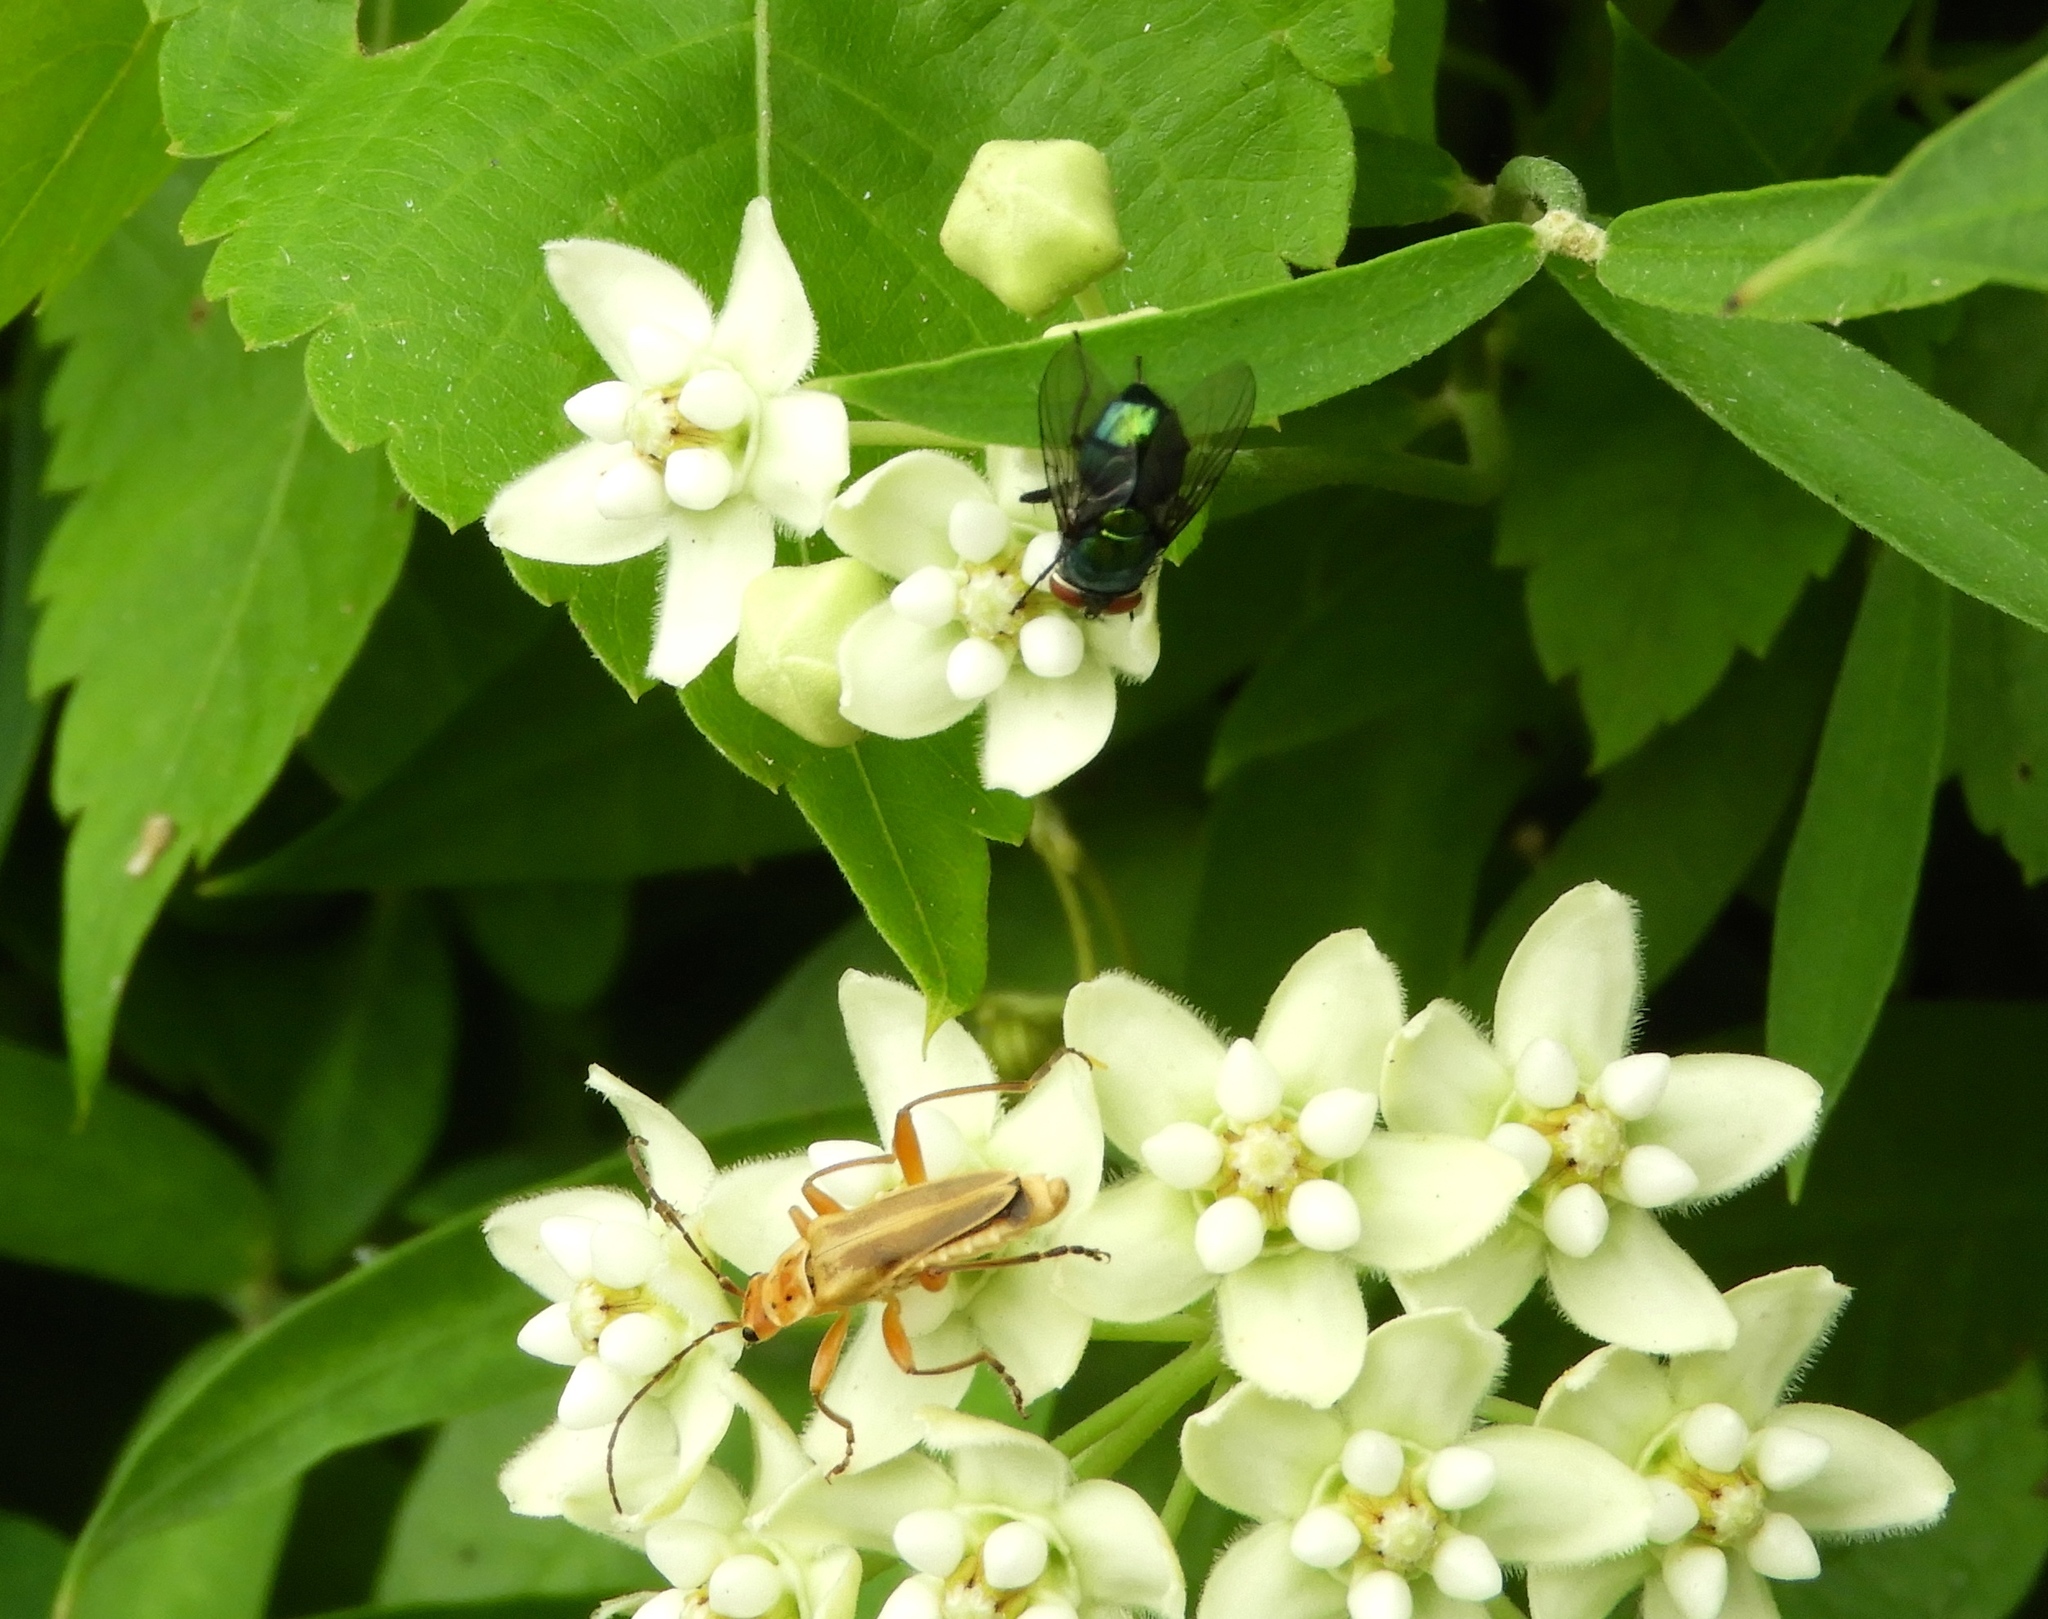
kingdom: Animalia
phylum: Arthropoda
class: Insecta
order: Coleoptera
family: Cantharidae
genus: Chauliognathus
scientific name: Chauliognathus
